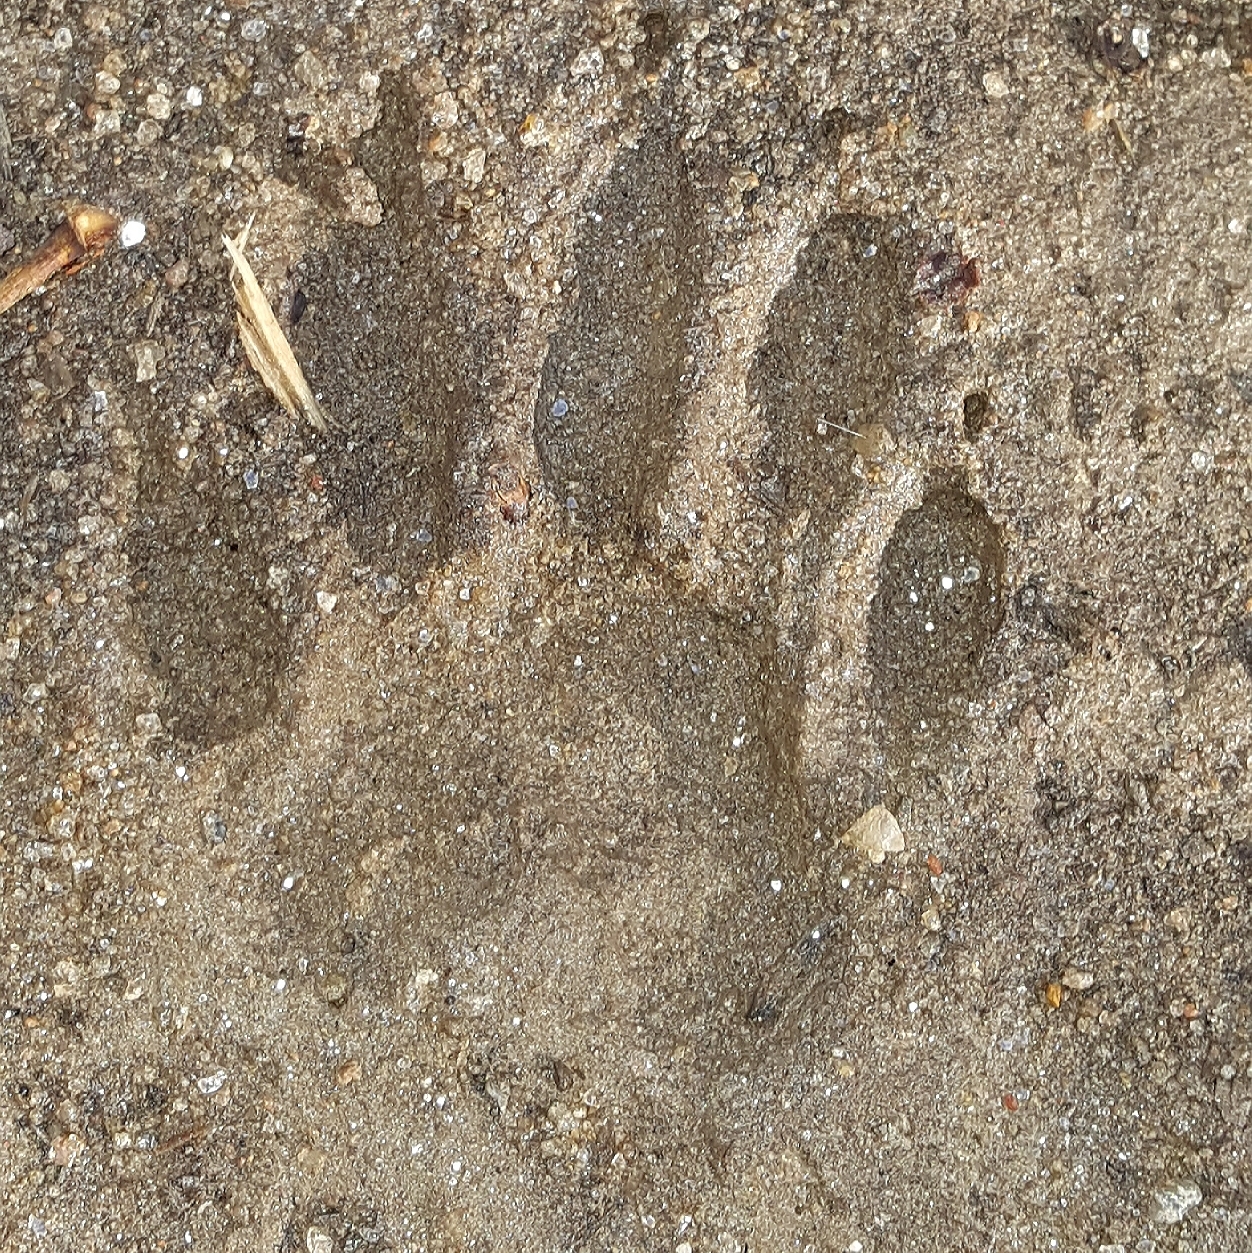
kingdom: Animalia
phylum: Chordata
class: Mammalia
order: Carnivora
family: Procyonidae
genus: Procyon
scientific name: Procyon lotor
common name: Raccoon
